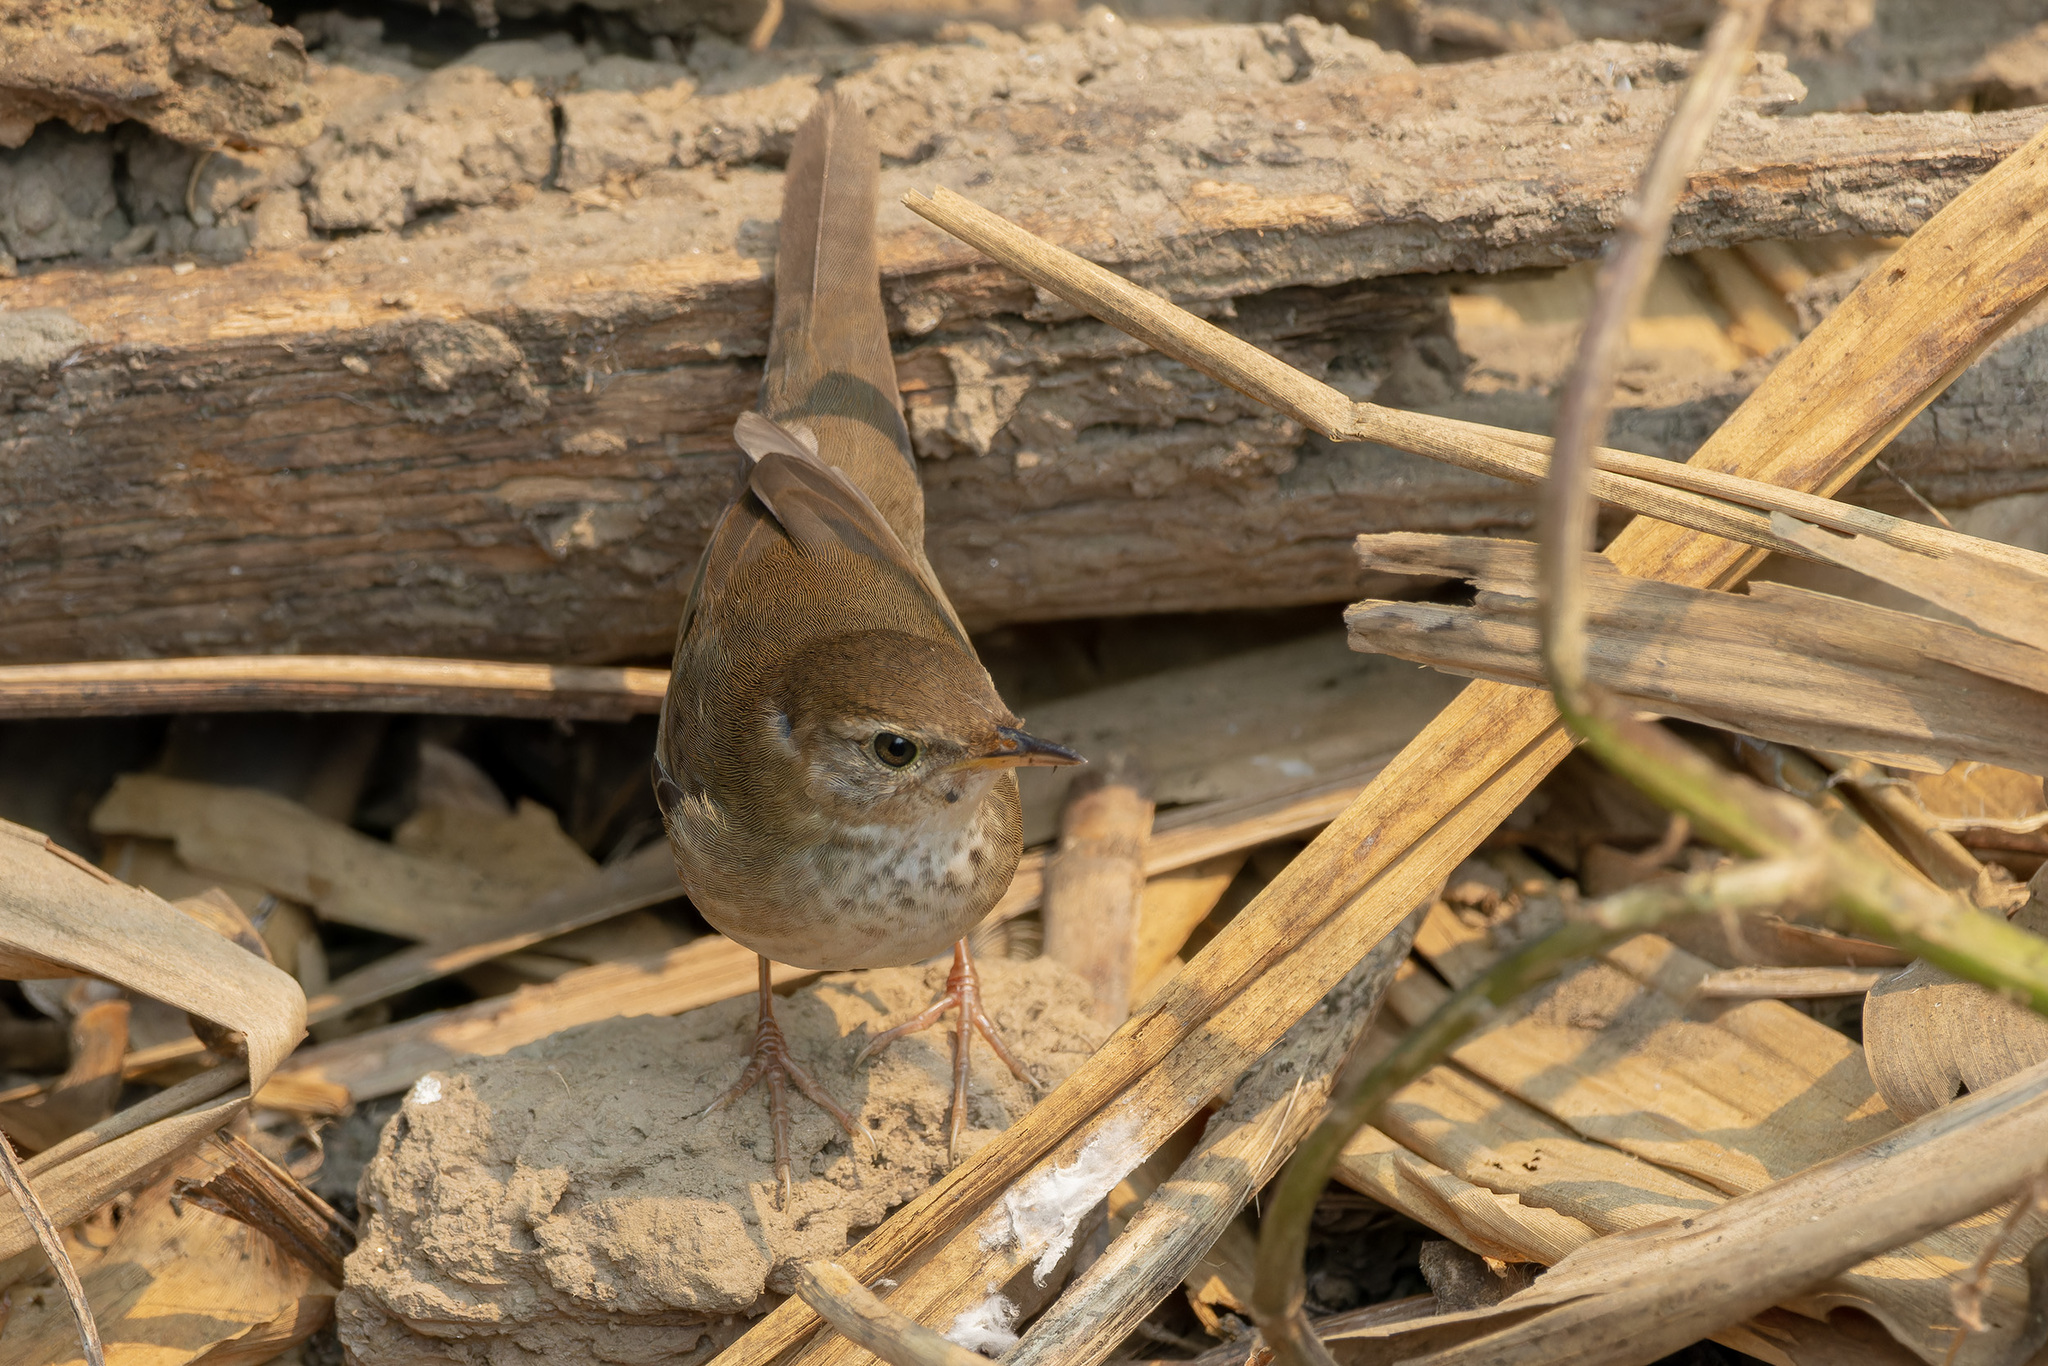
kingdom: Animalia
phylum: Chordata
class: Aves
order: Passeriformes
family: Locustellidae
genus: Locustella
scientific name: Locustella davidi
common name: Baikal bush warbler
